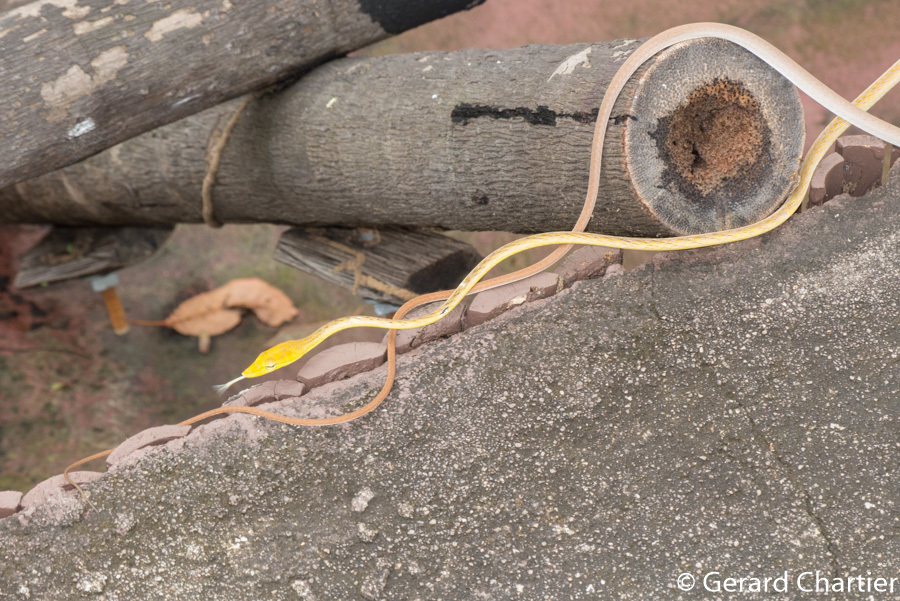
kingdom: Animalia
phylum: Chordata
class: Squamata
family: Colubridae
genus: Ahaetulla
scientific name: Ahaetulla prasina
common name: Oriental whip snake
